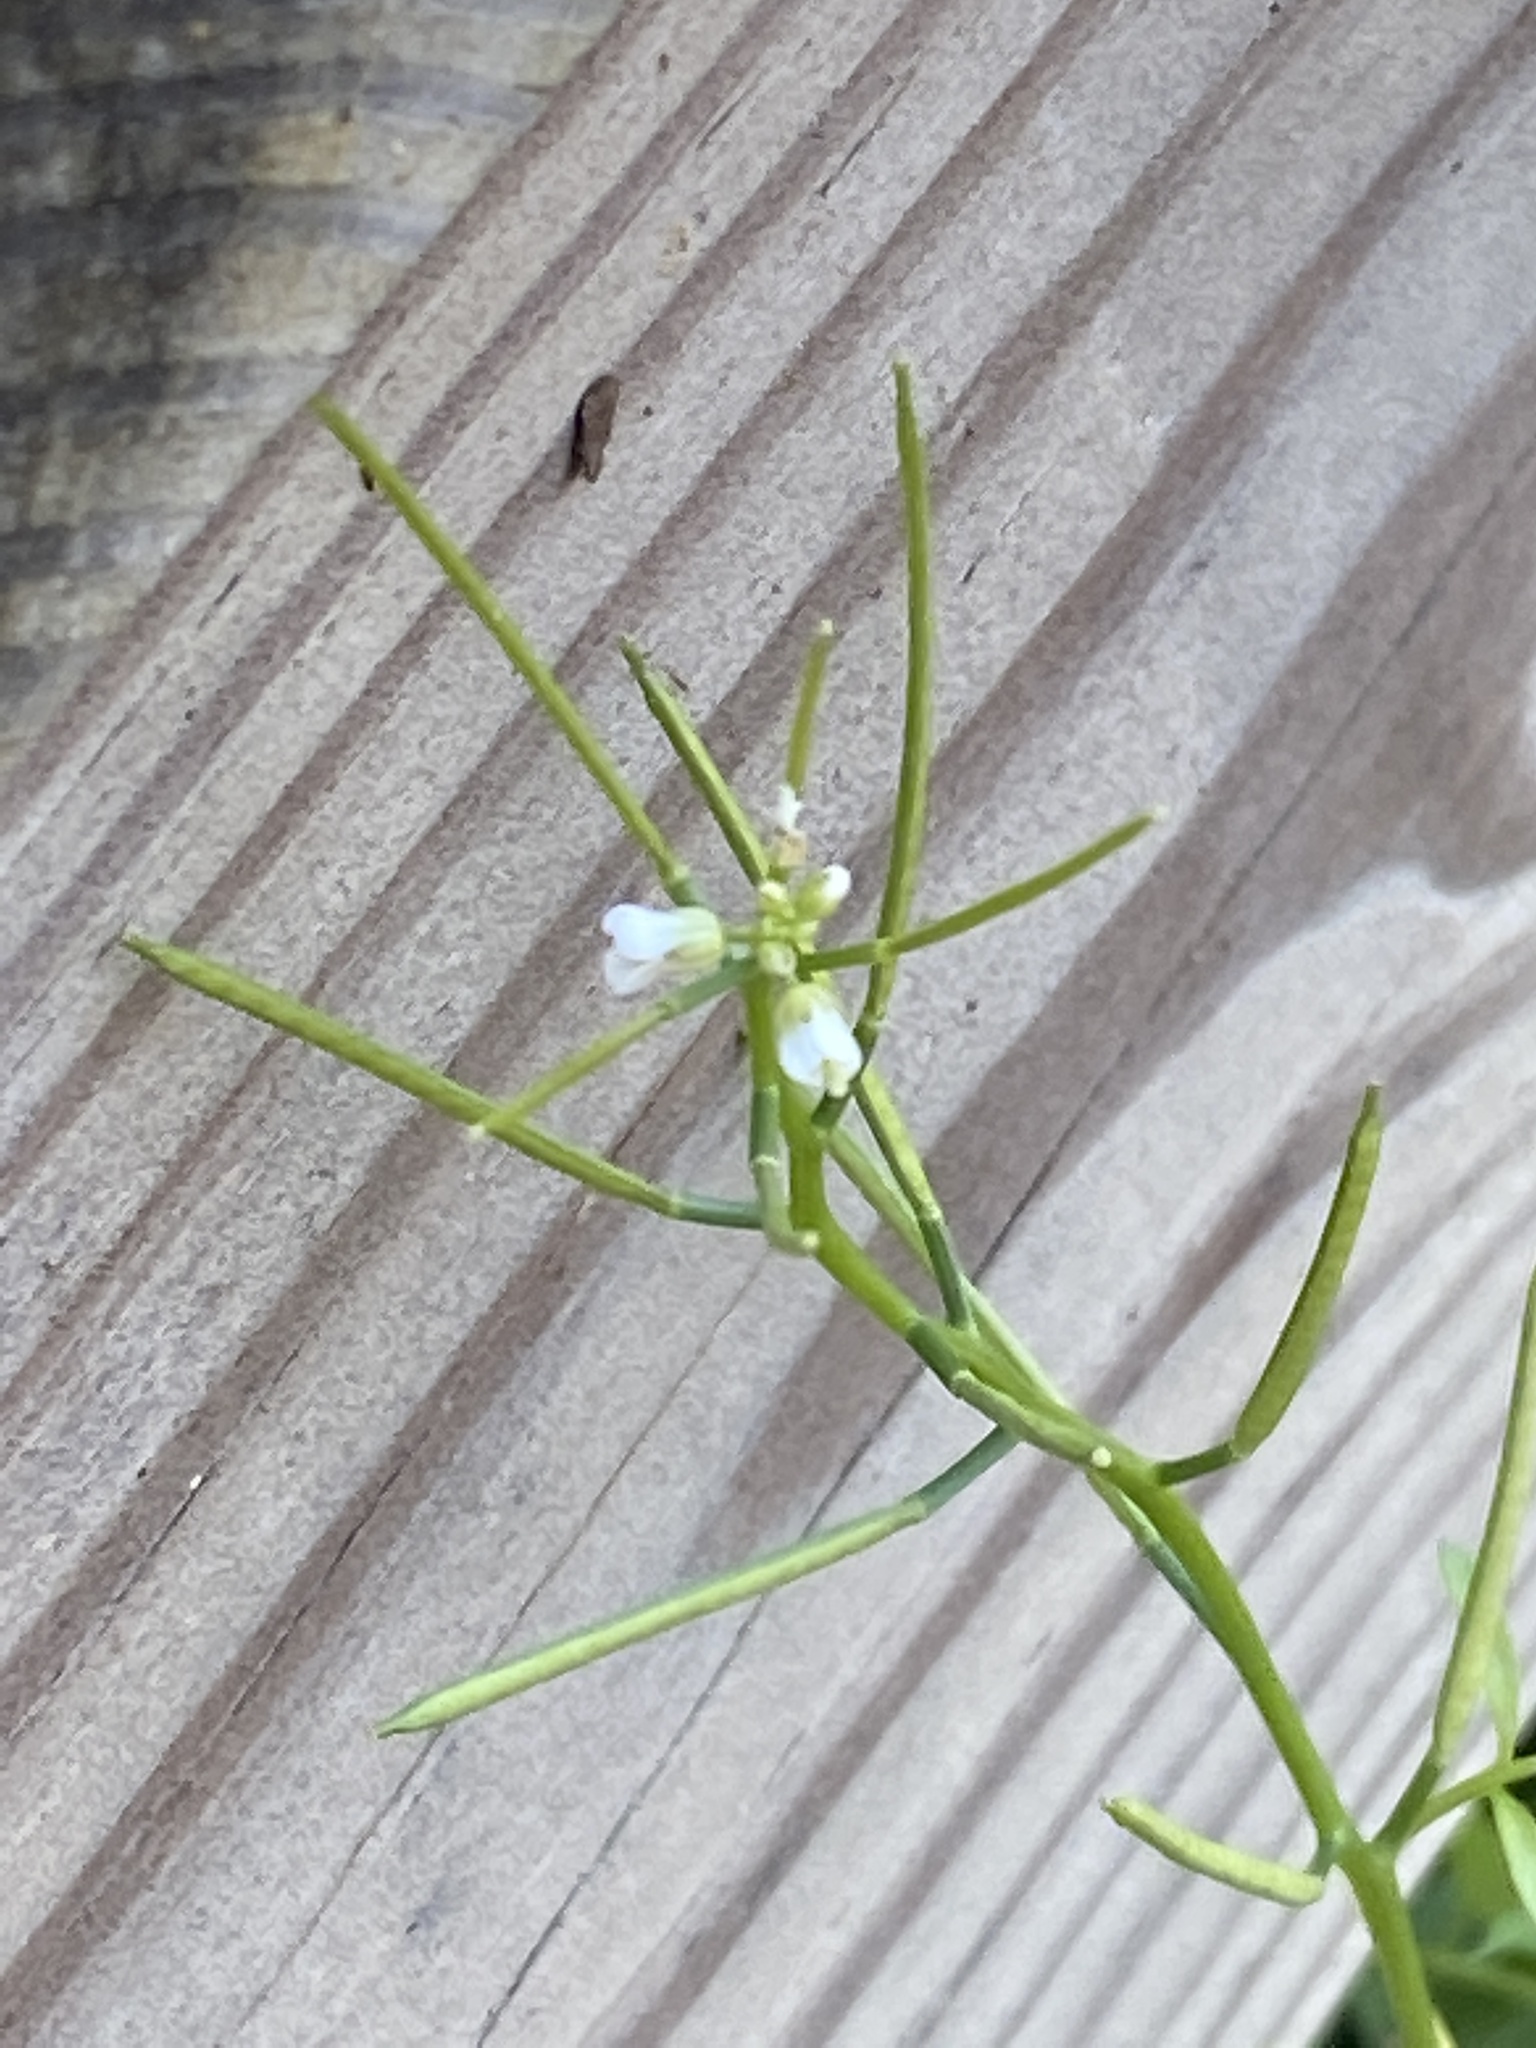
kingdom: Plantae
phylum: Tracheophyta
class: Magnoliopsida
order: Brassicales
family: Brassicaceae
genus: Cardamine
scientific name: Cardamine hirsuta
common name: Hairy bittercress
